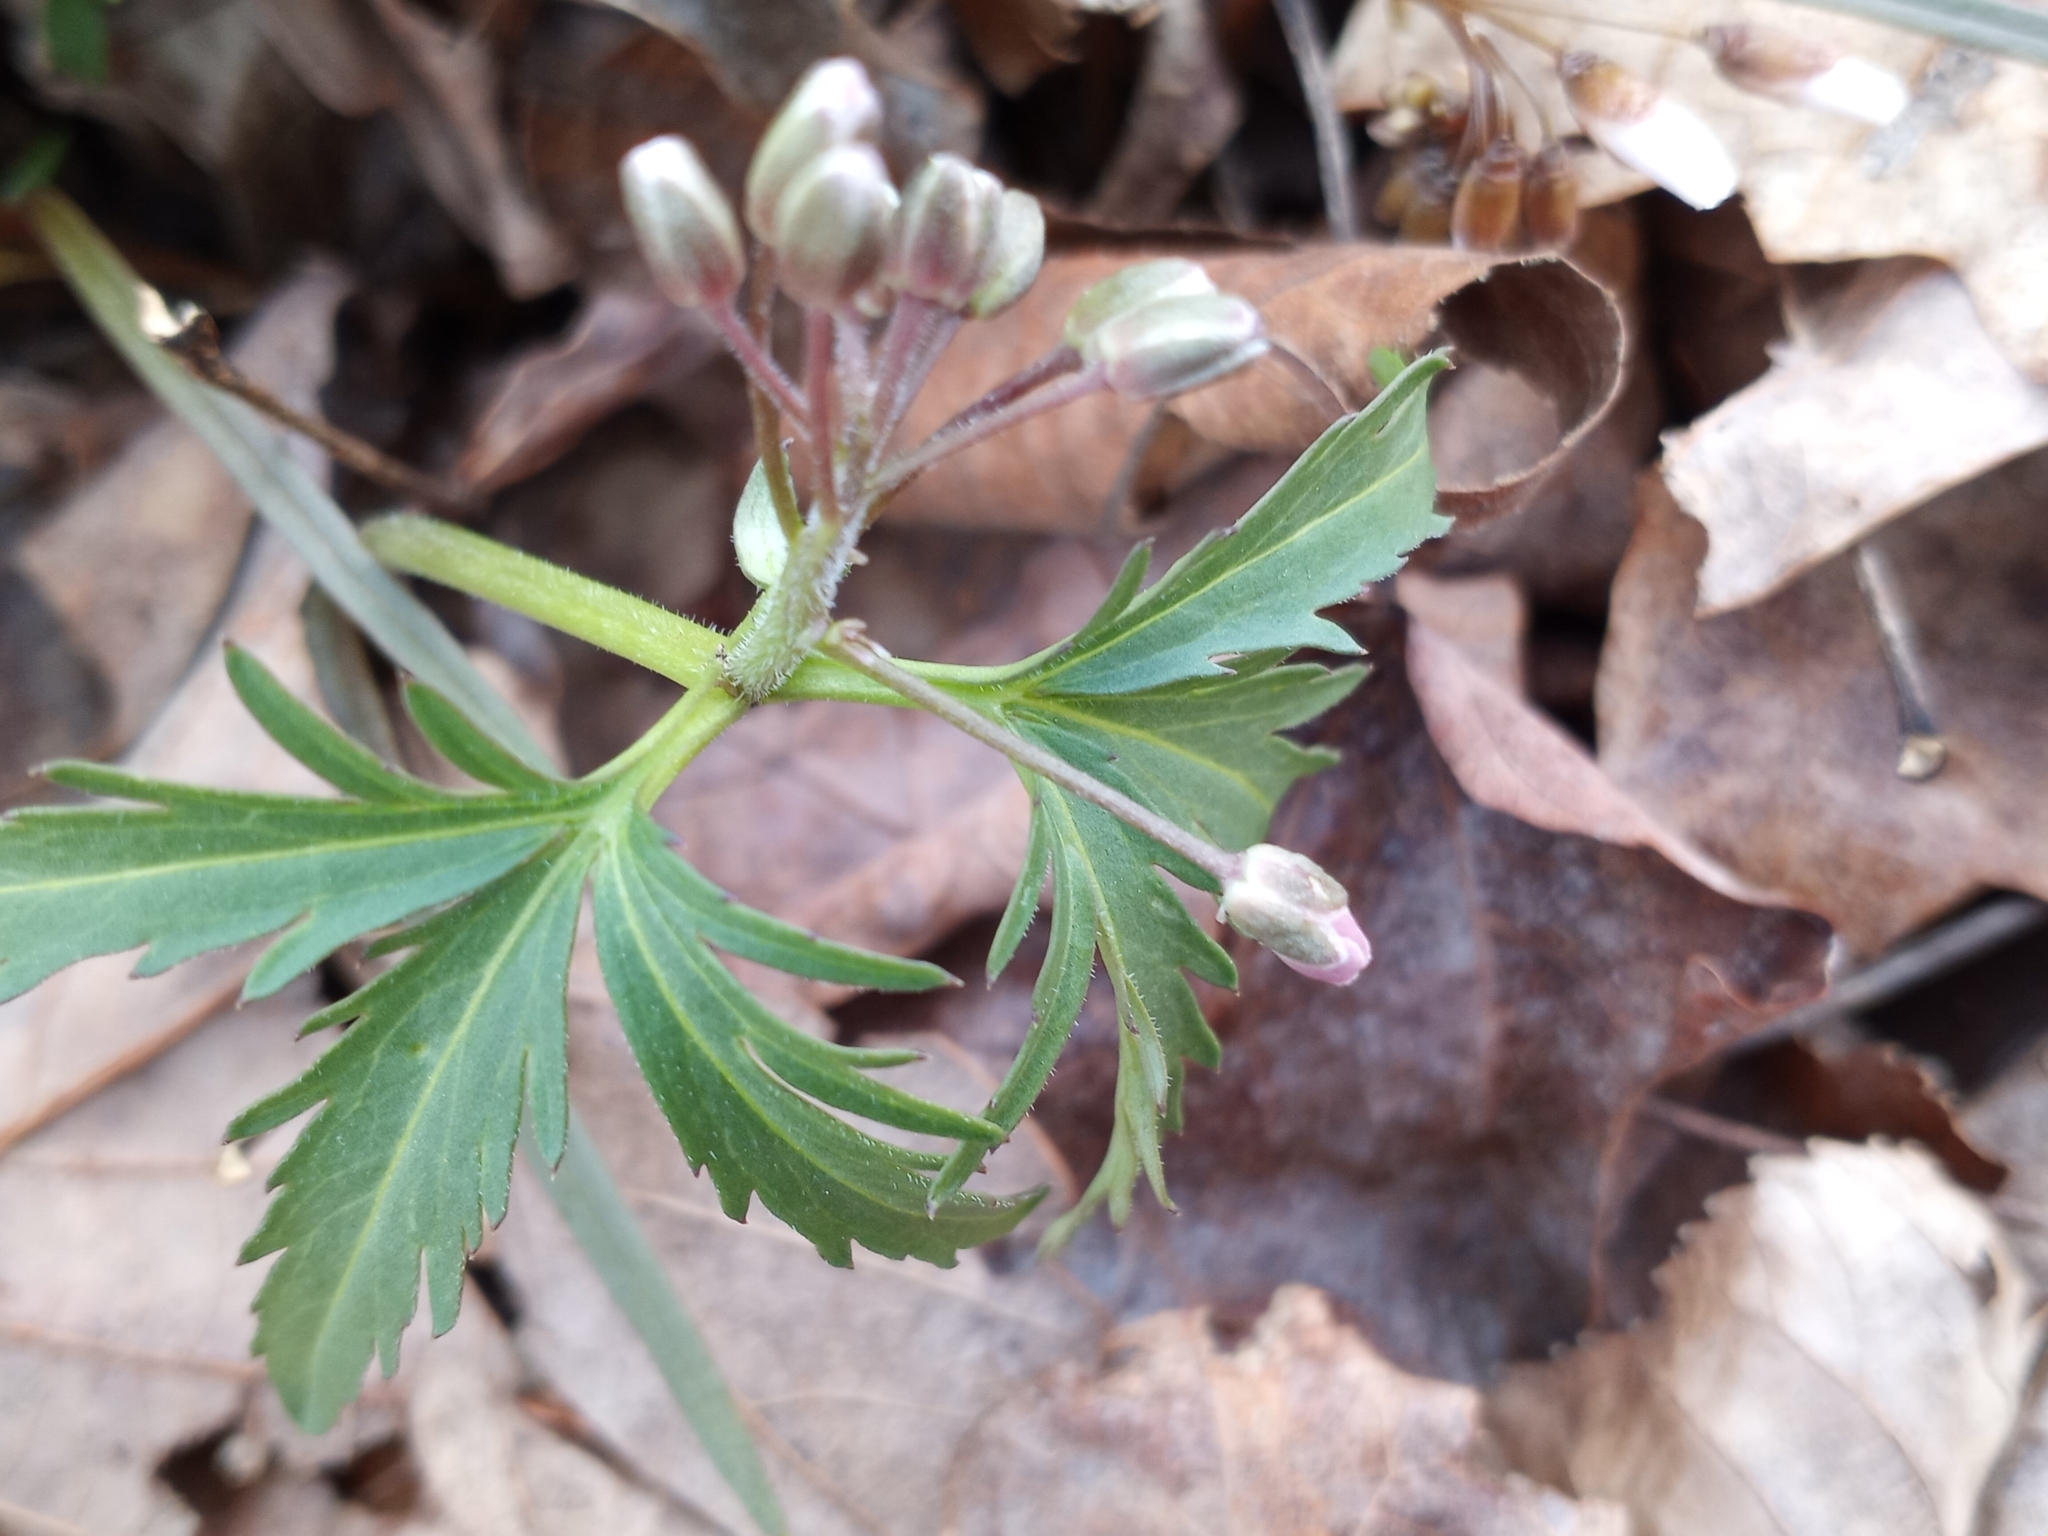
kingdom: Plantae
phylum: Tracheophyta
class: Magnoliopsida
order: Brassicales
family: Brassicaceae
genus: Cardamine
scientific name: Cardamine concatenata
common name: Cut-leaf toothcup
